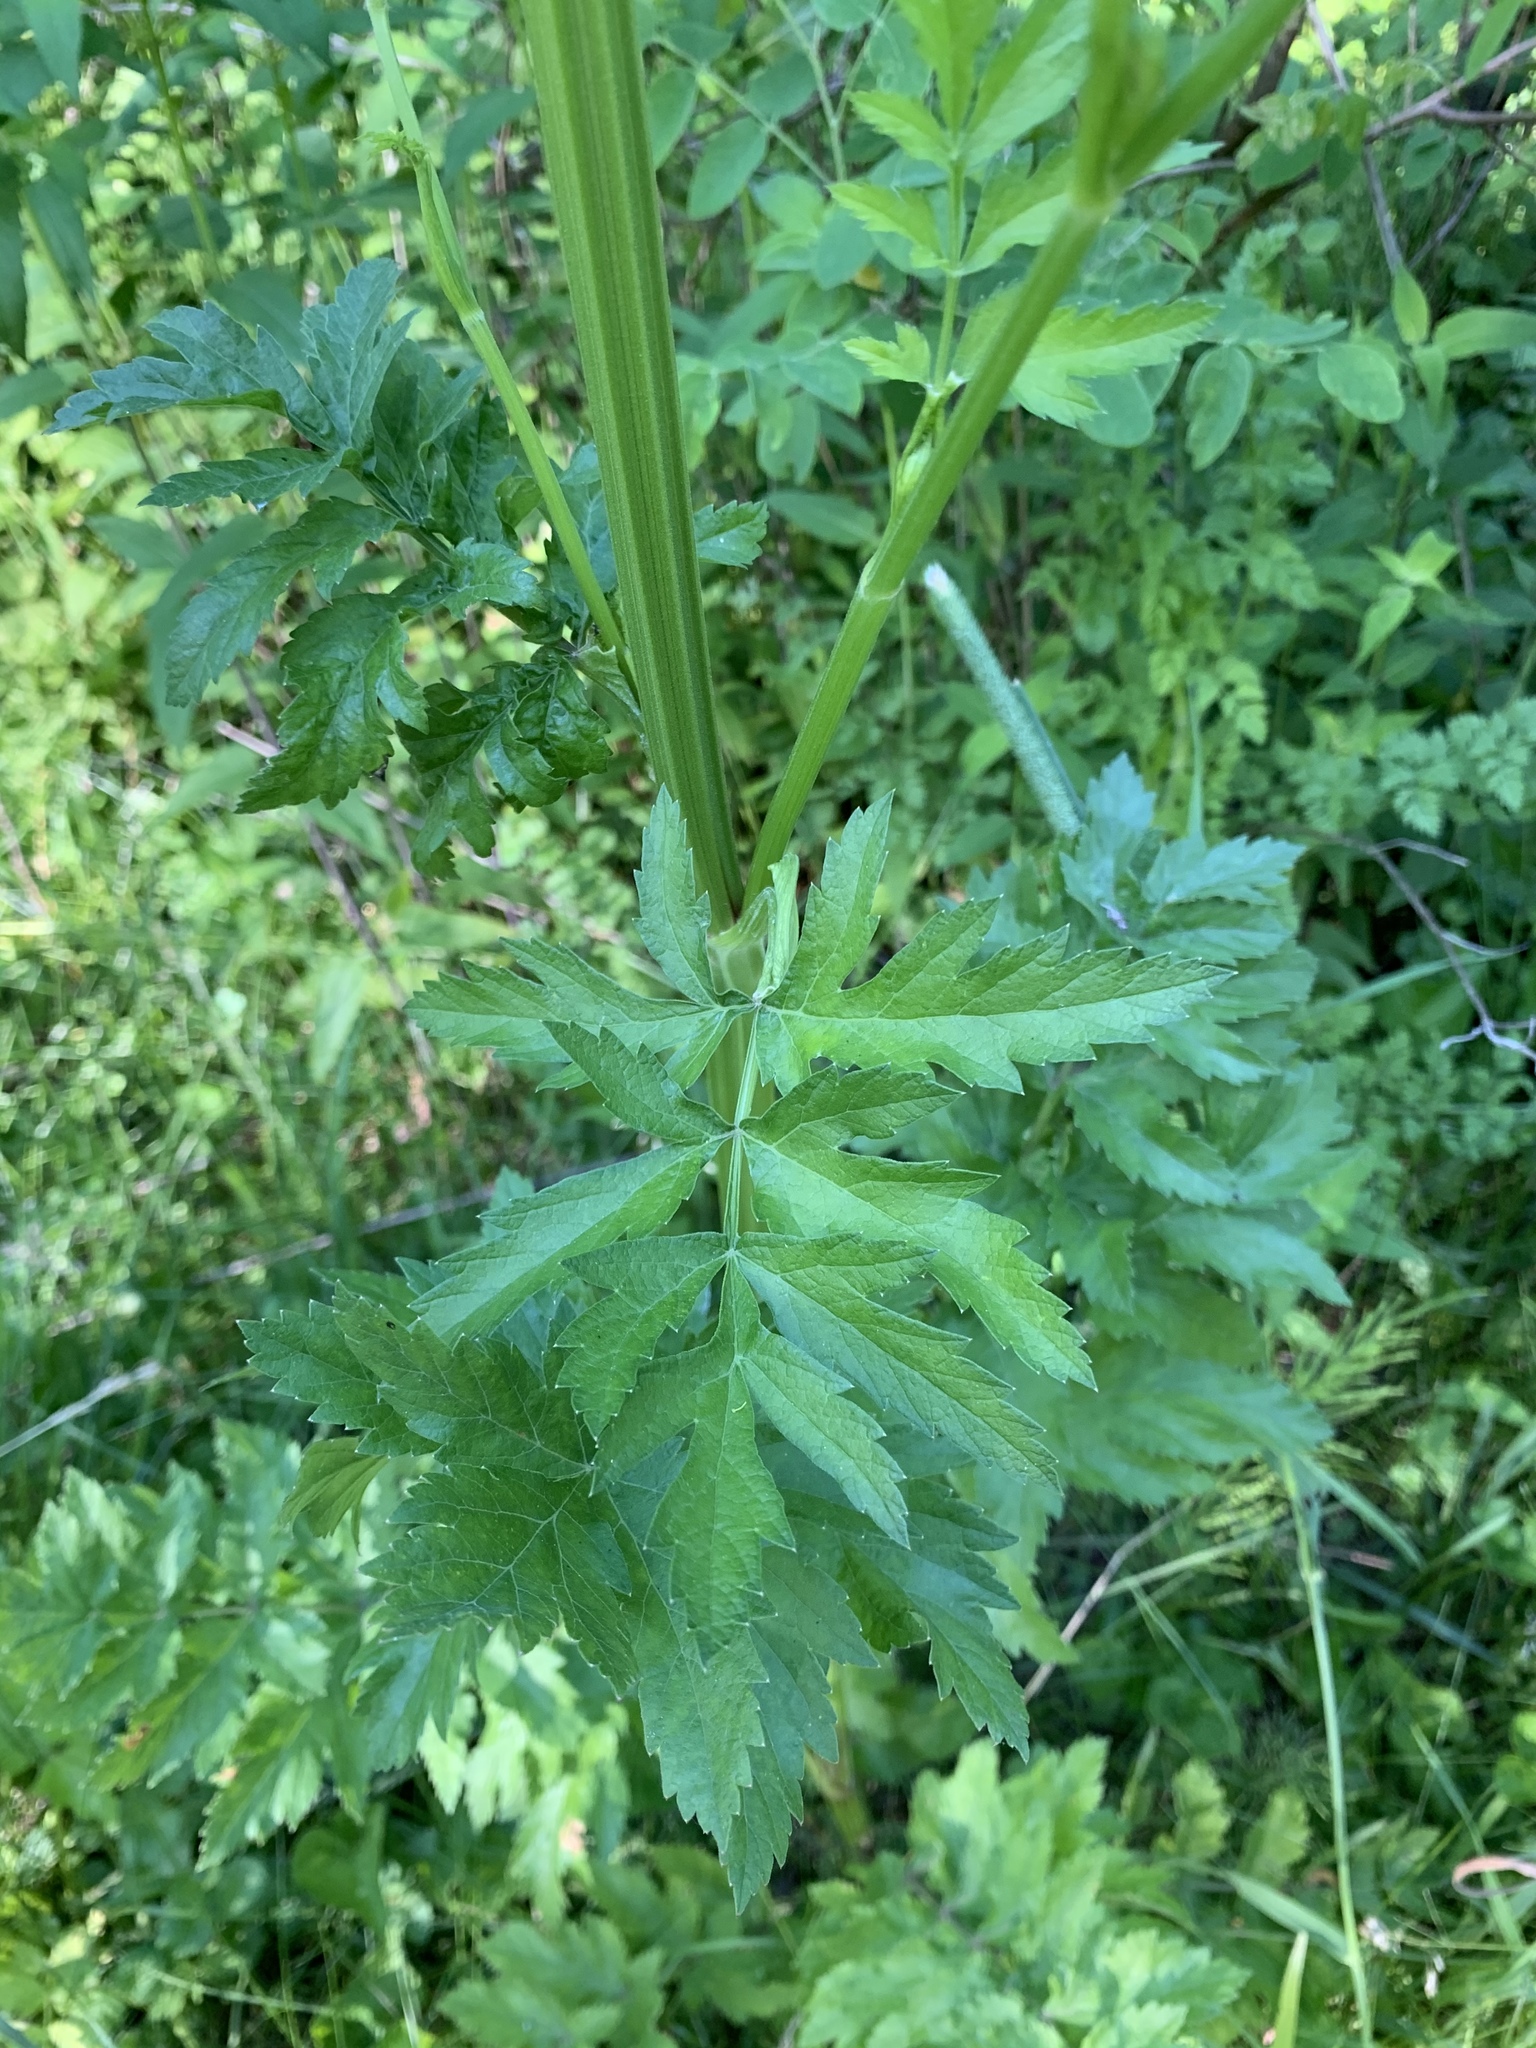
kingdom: Plantae
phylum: Tracheophyta
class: Magnoliopsida
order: Apiales
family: Apiaceae
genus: Pastinaca
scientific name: Pastinaca sativa
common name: Wild parsnip
